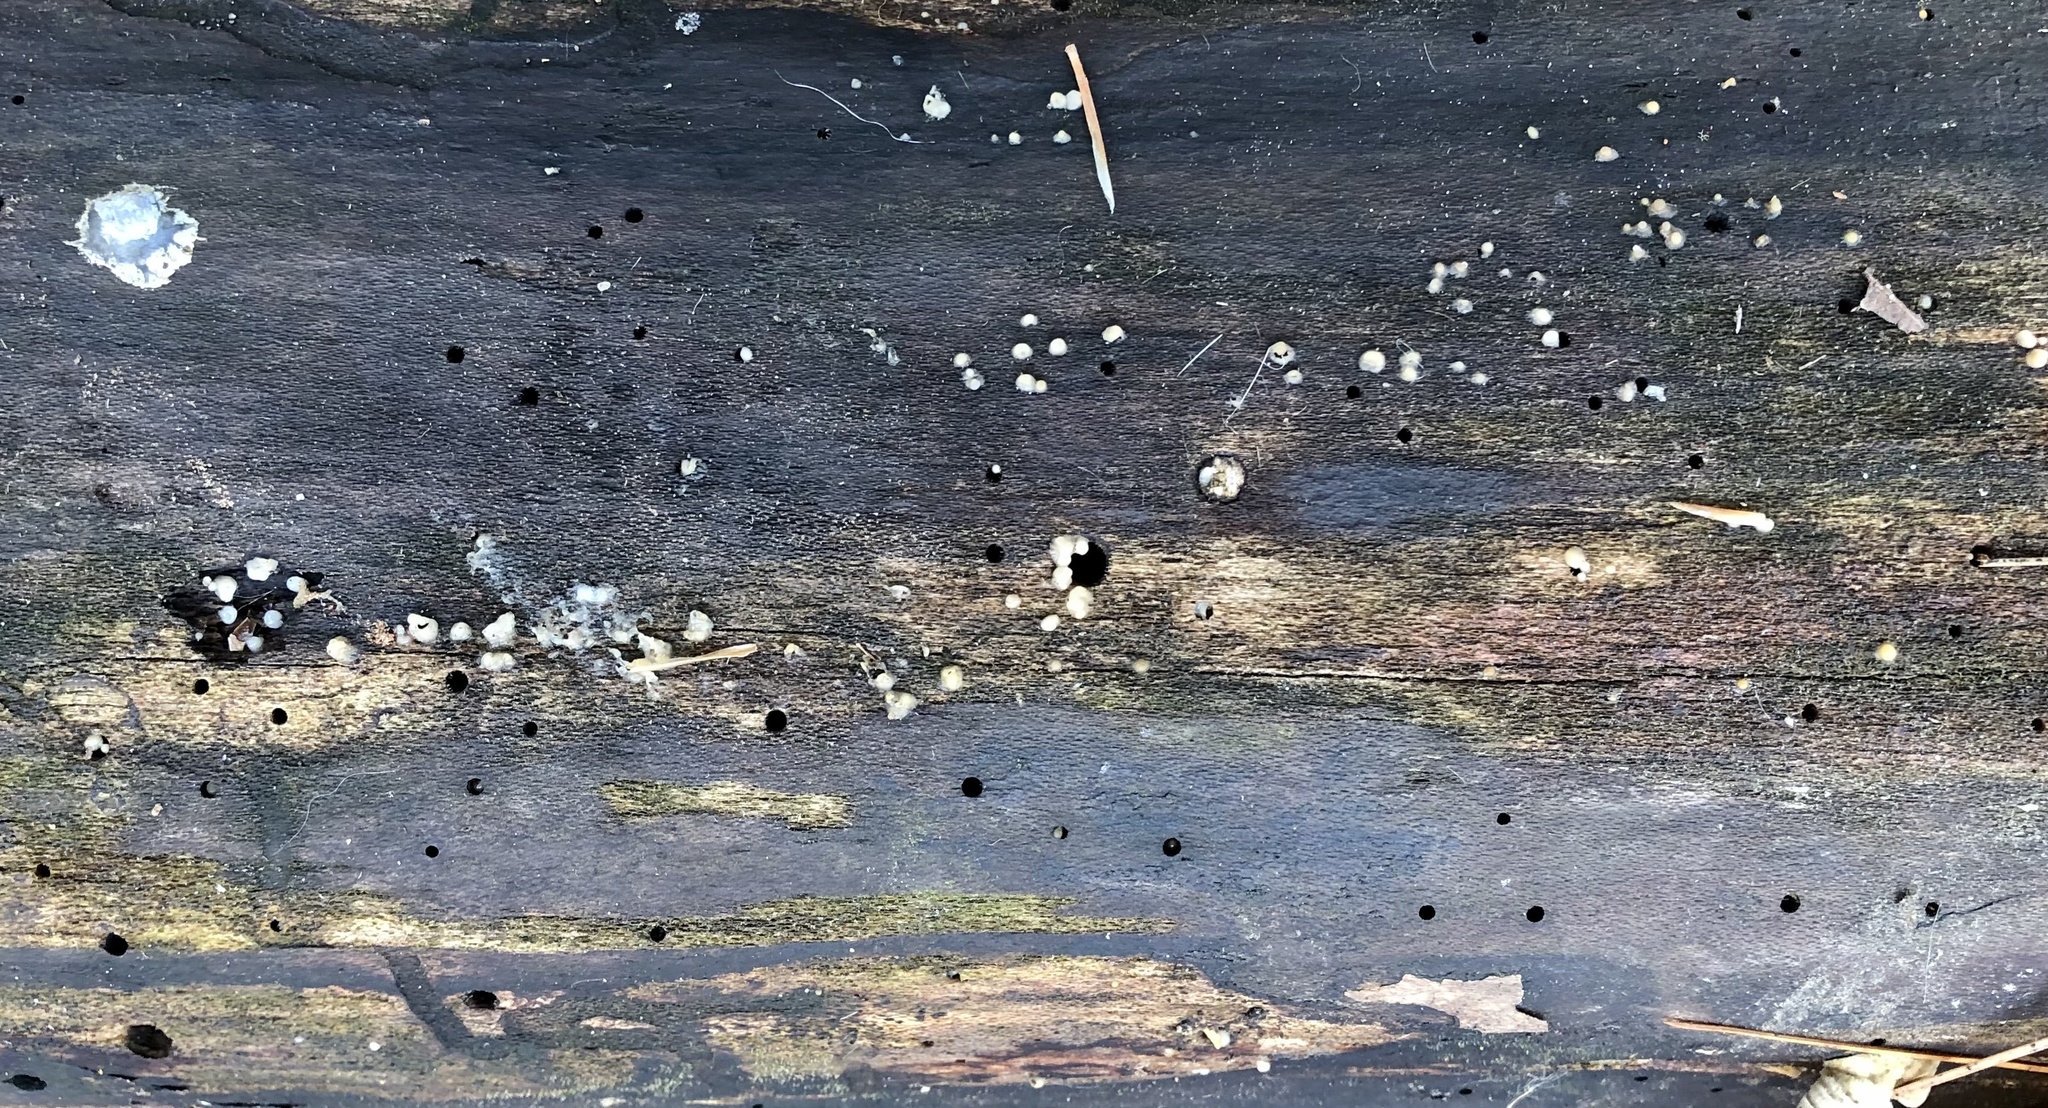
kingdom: Fungi
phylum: Basidiomycota
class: Atractiellomycetes
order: Atractiellales
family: Phleogenaceae
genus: Helicogloea
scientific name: Helicogloea compressa
